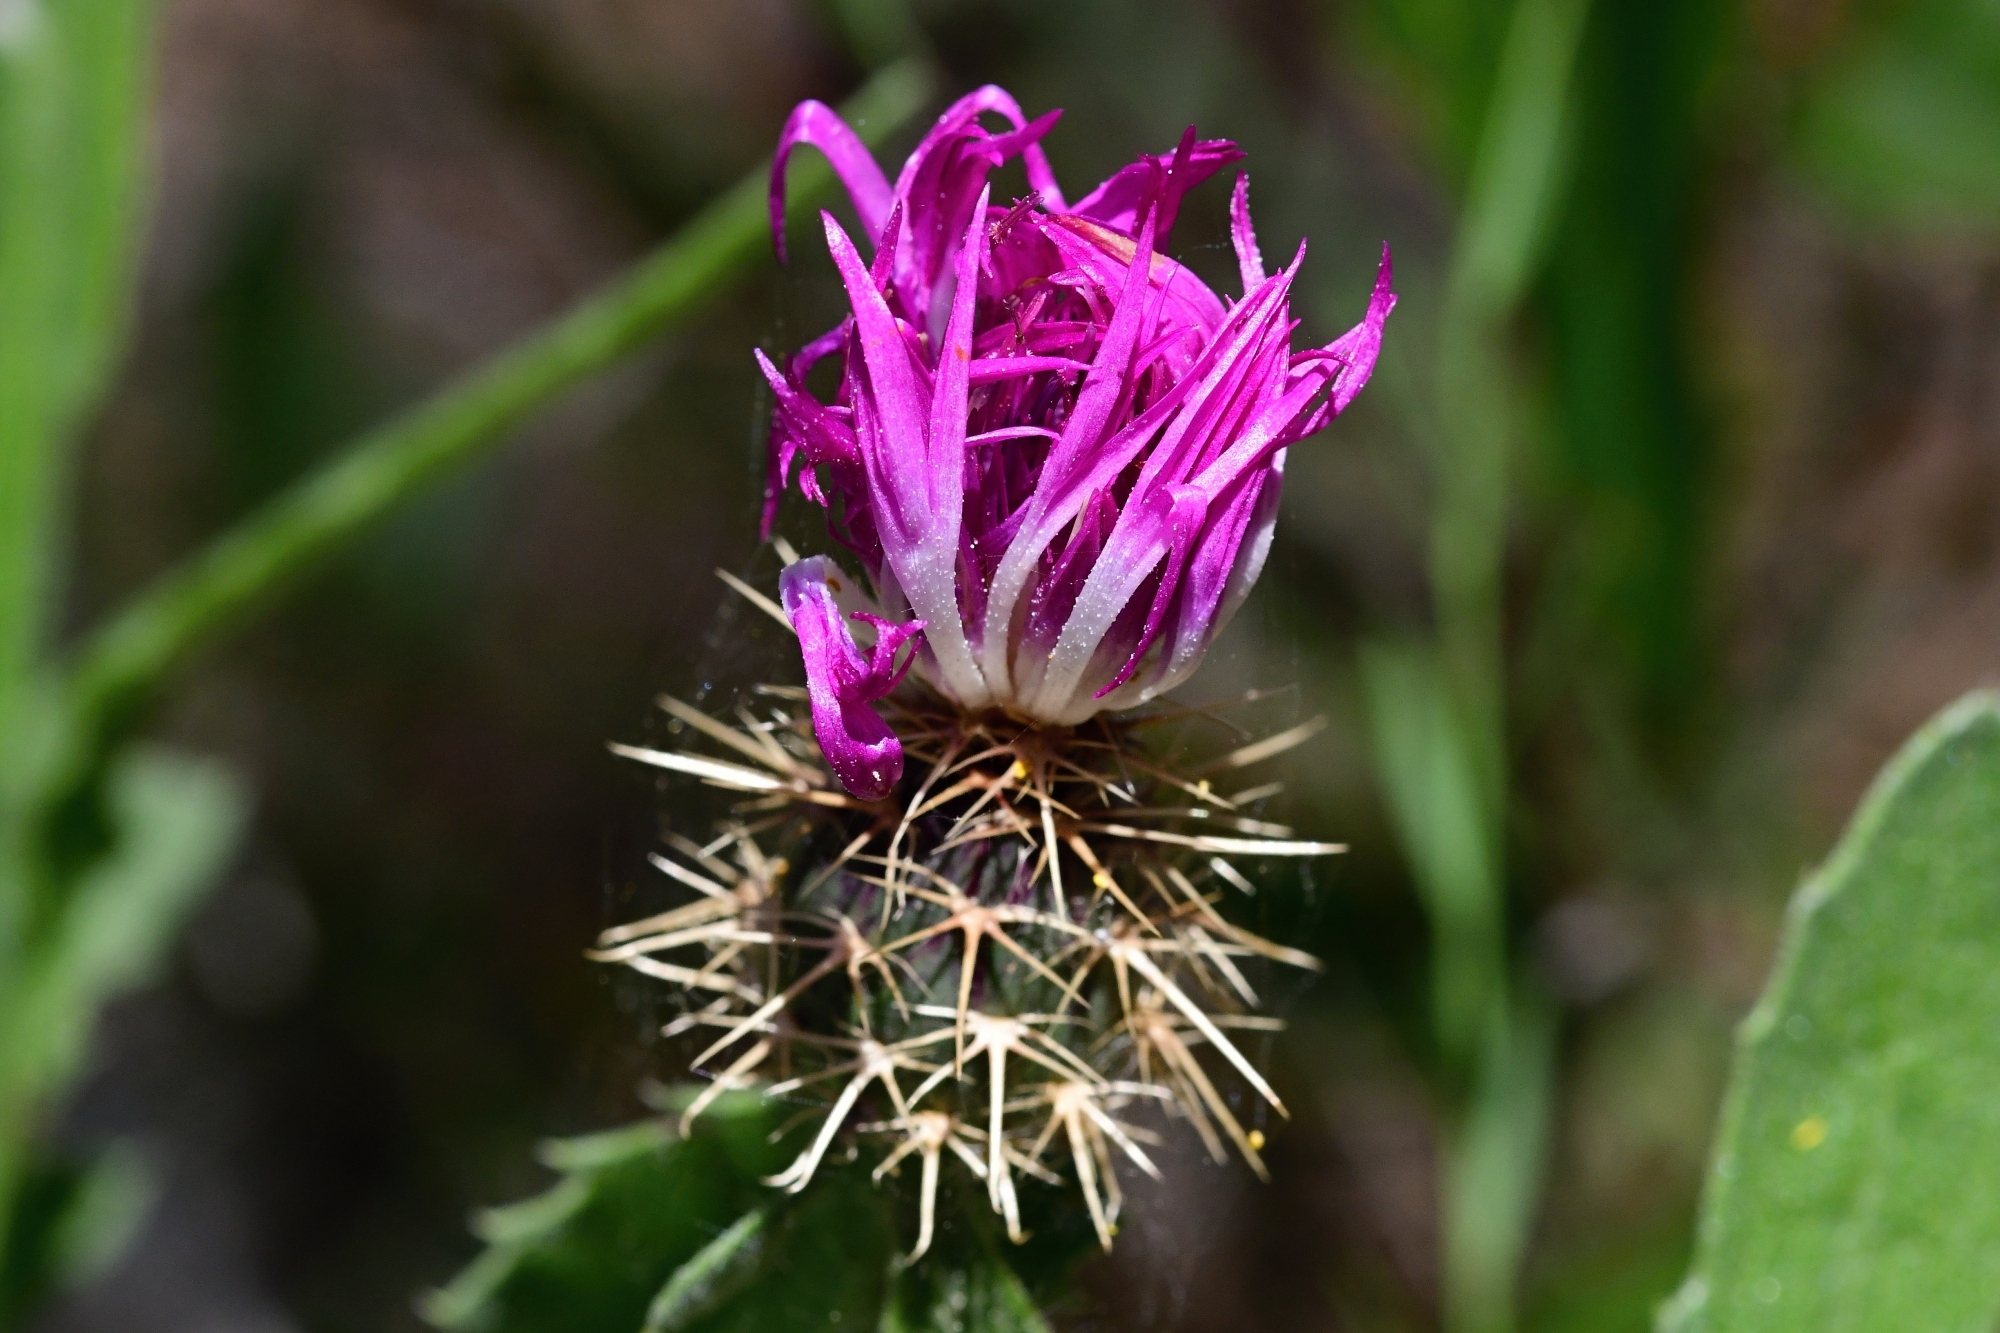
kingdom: Plantae
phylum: Tracheophyta
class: Magnoliopsida
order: Asterales
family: Asteraceae
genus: Centaurea
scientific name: Centaurea seridis
